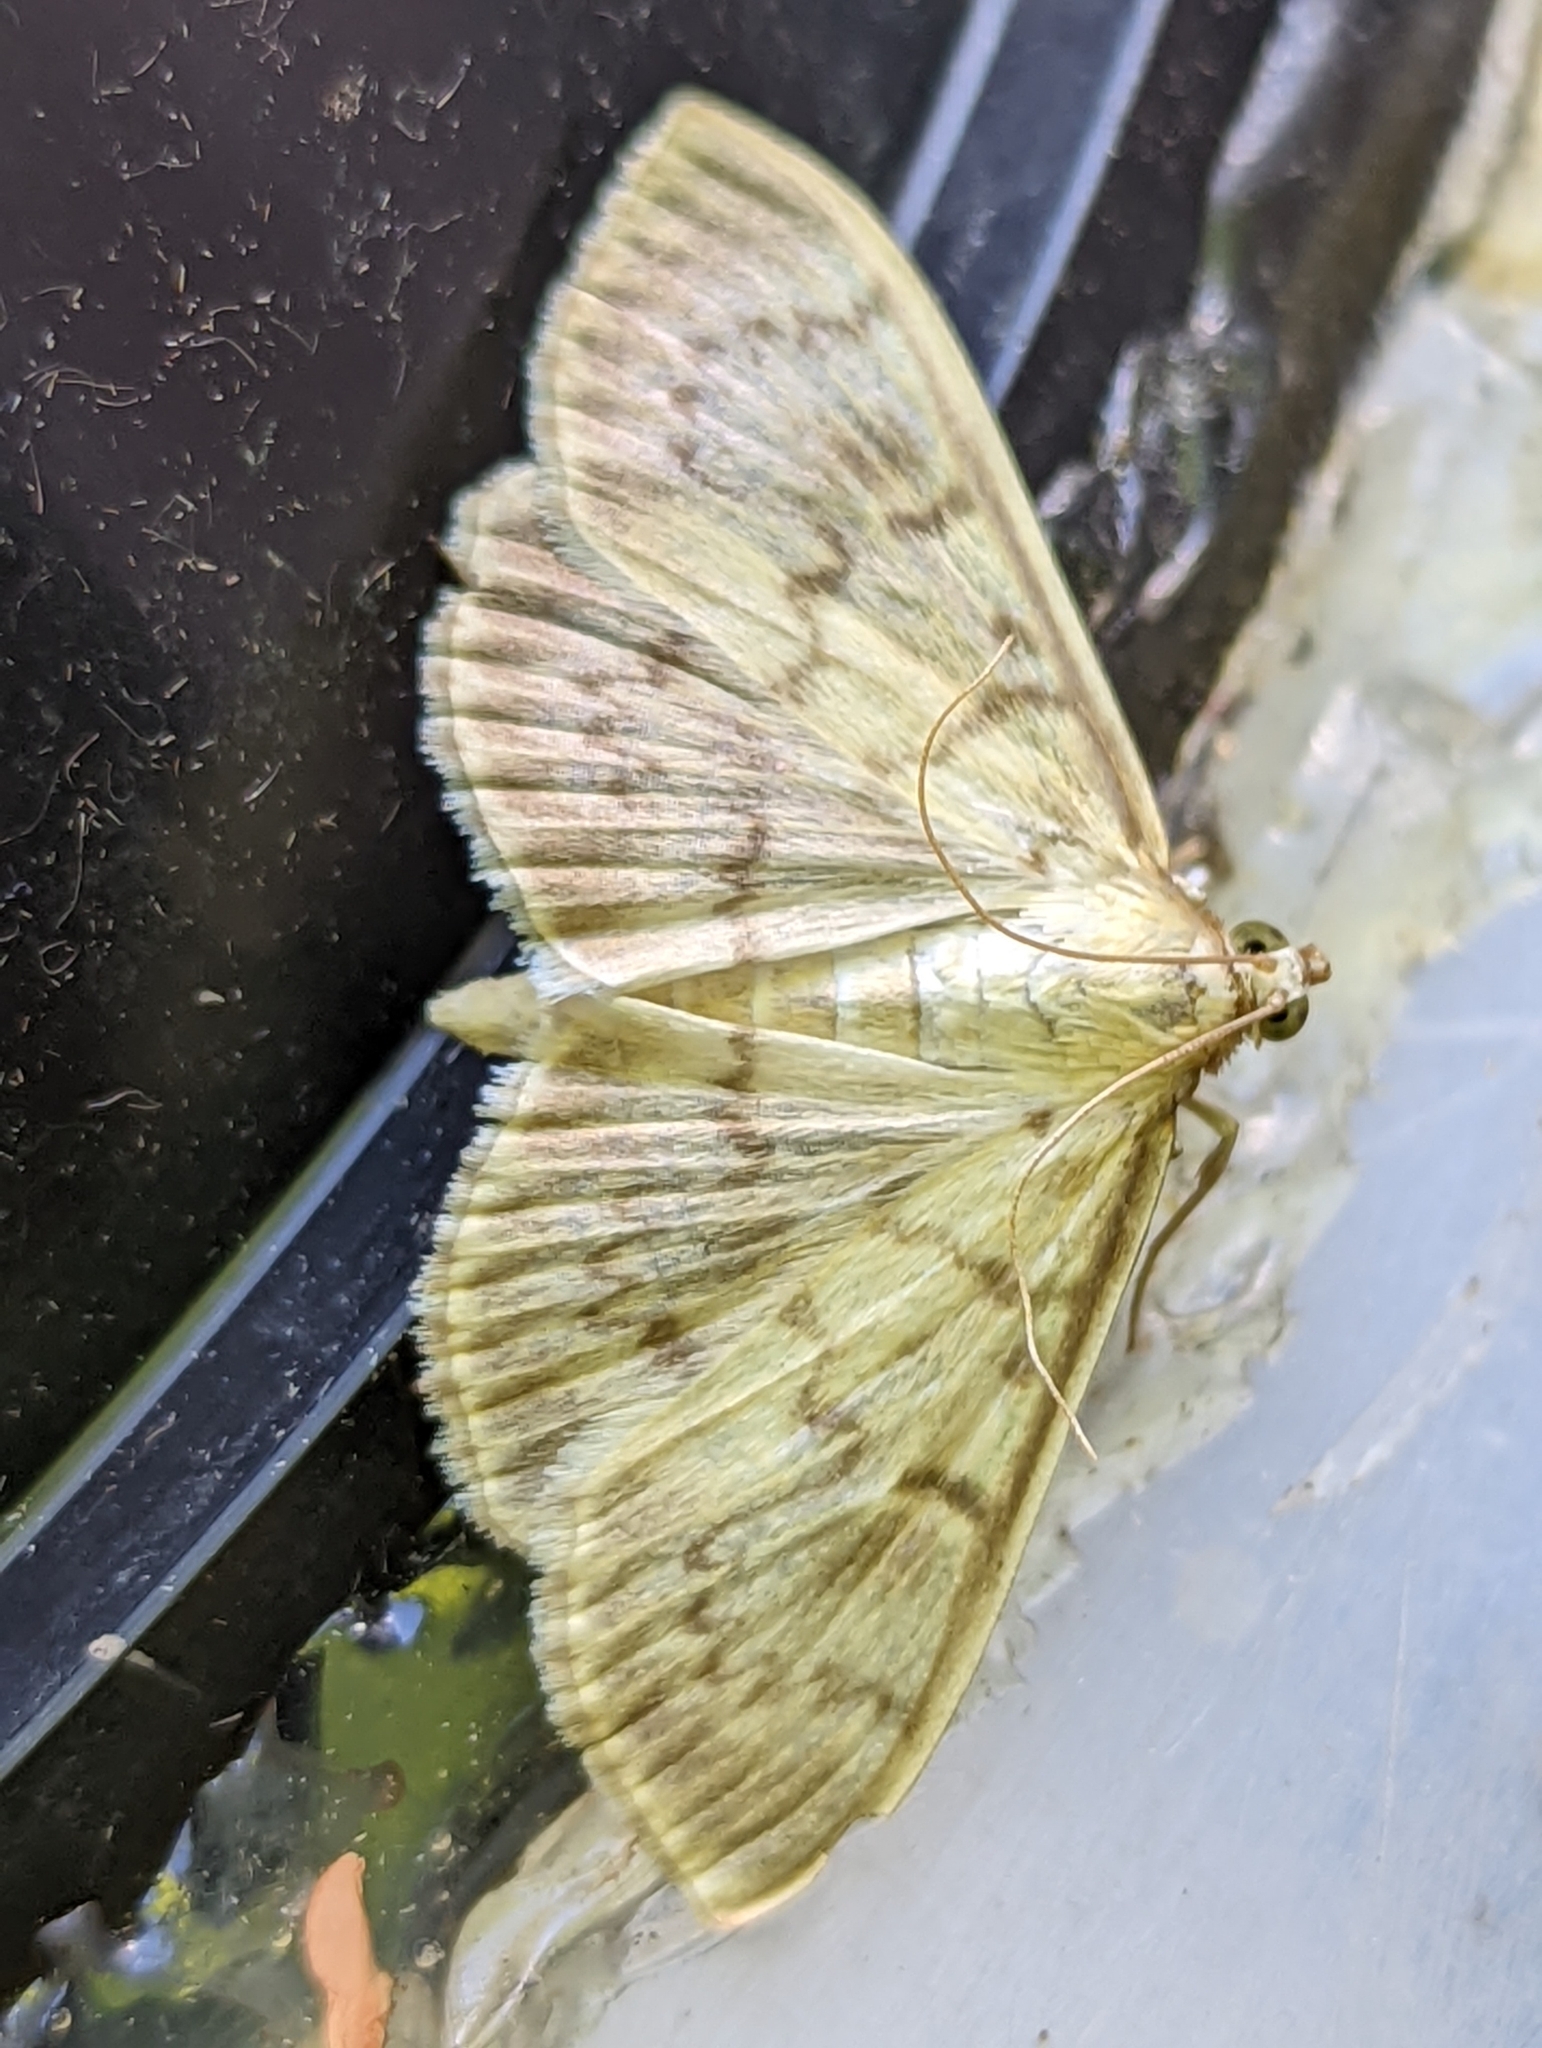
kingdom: Animalia
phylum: Arthropoda
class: Insecta
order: Lepidoptera
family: Crambidae
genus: Patania
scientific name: Patania ruralis
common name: Mother of pearl
